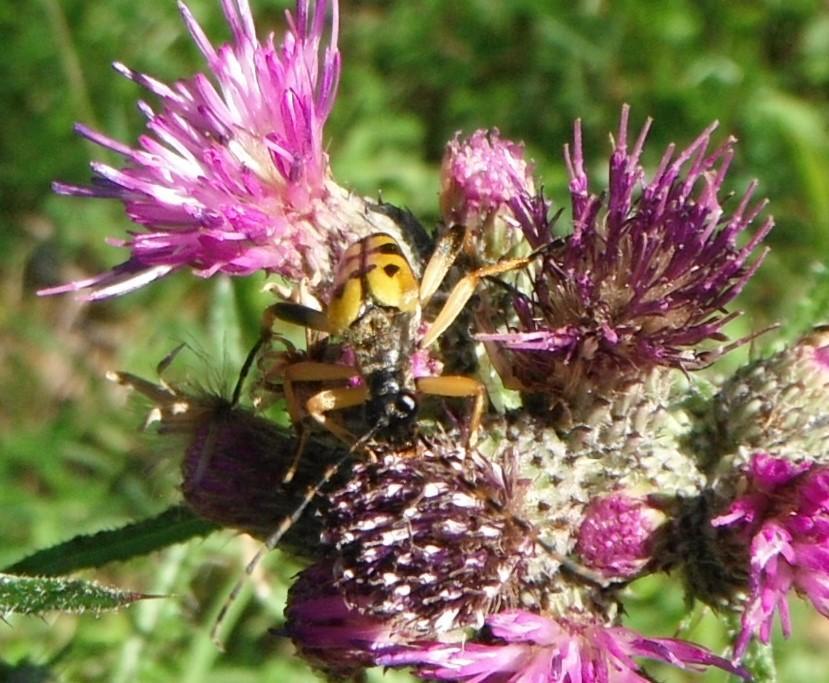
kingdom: Animalia
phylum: Arthropoda
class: Insecta
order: Coleoptera
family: Cerambycidae
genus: Rutpela
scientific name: Rutpela maculata
